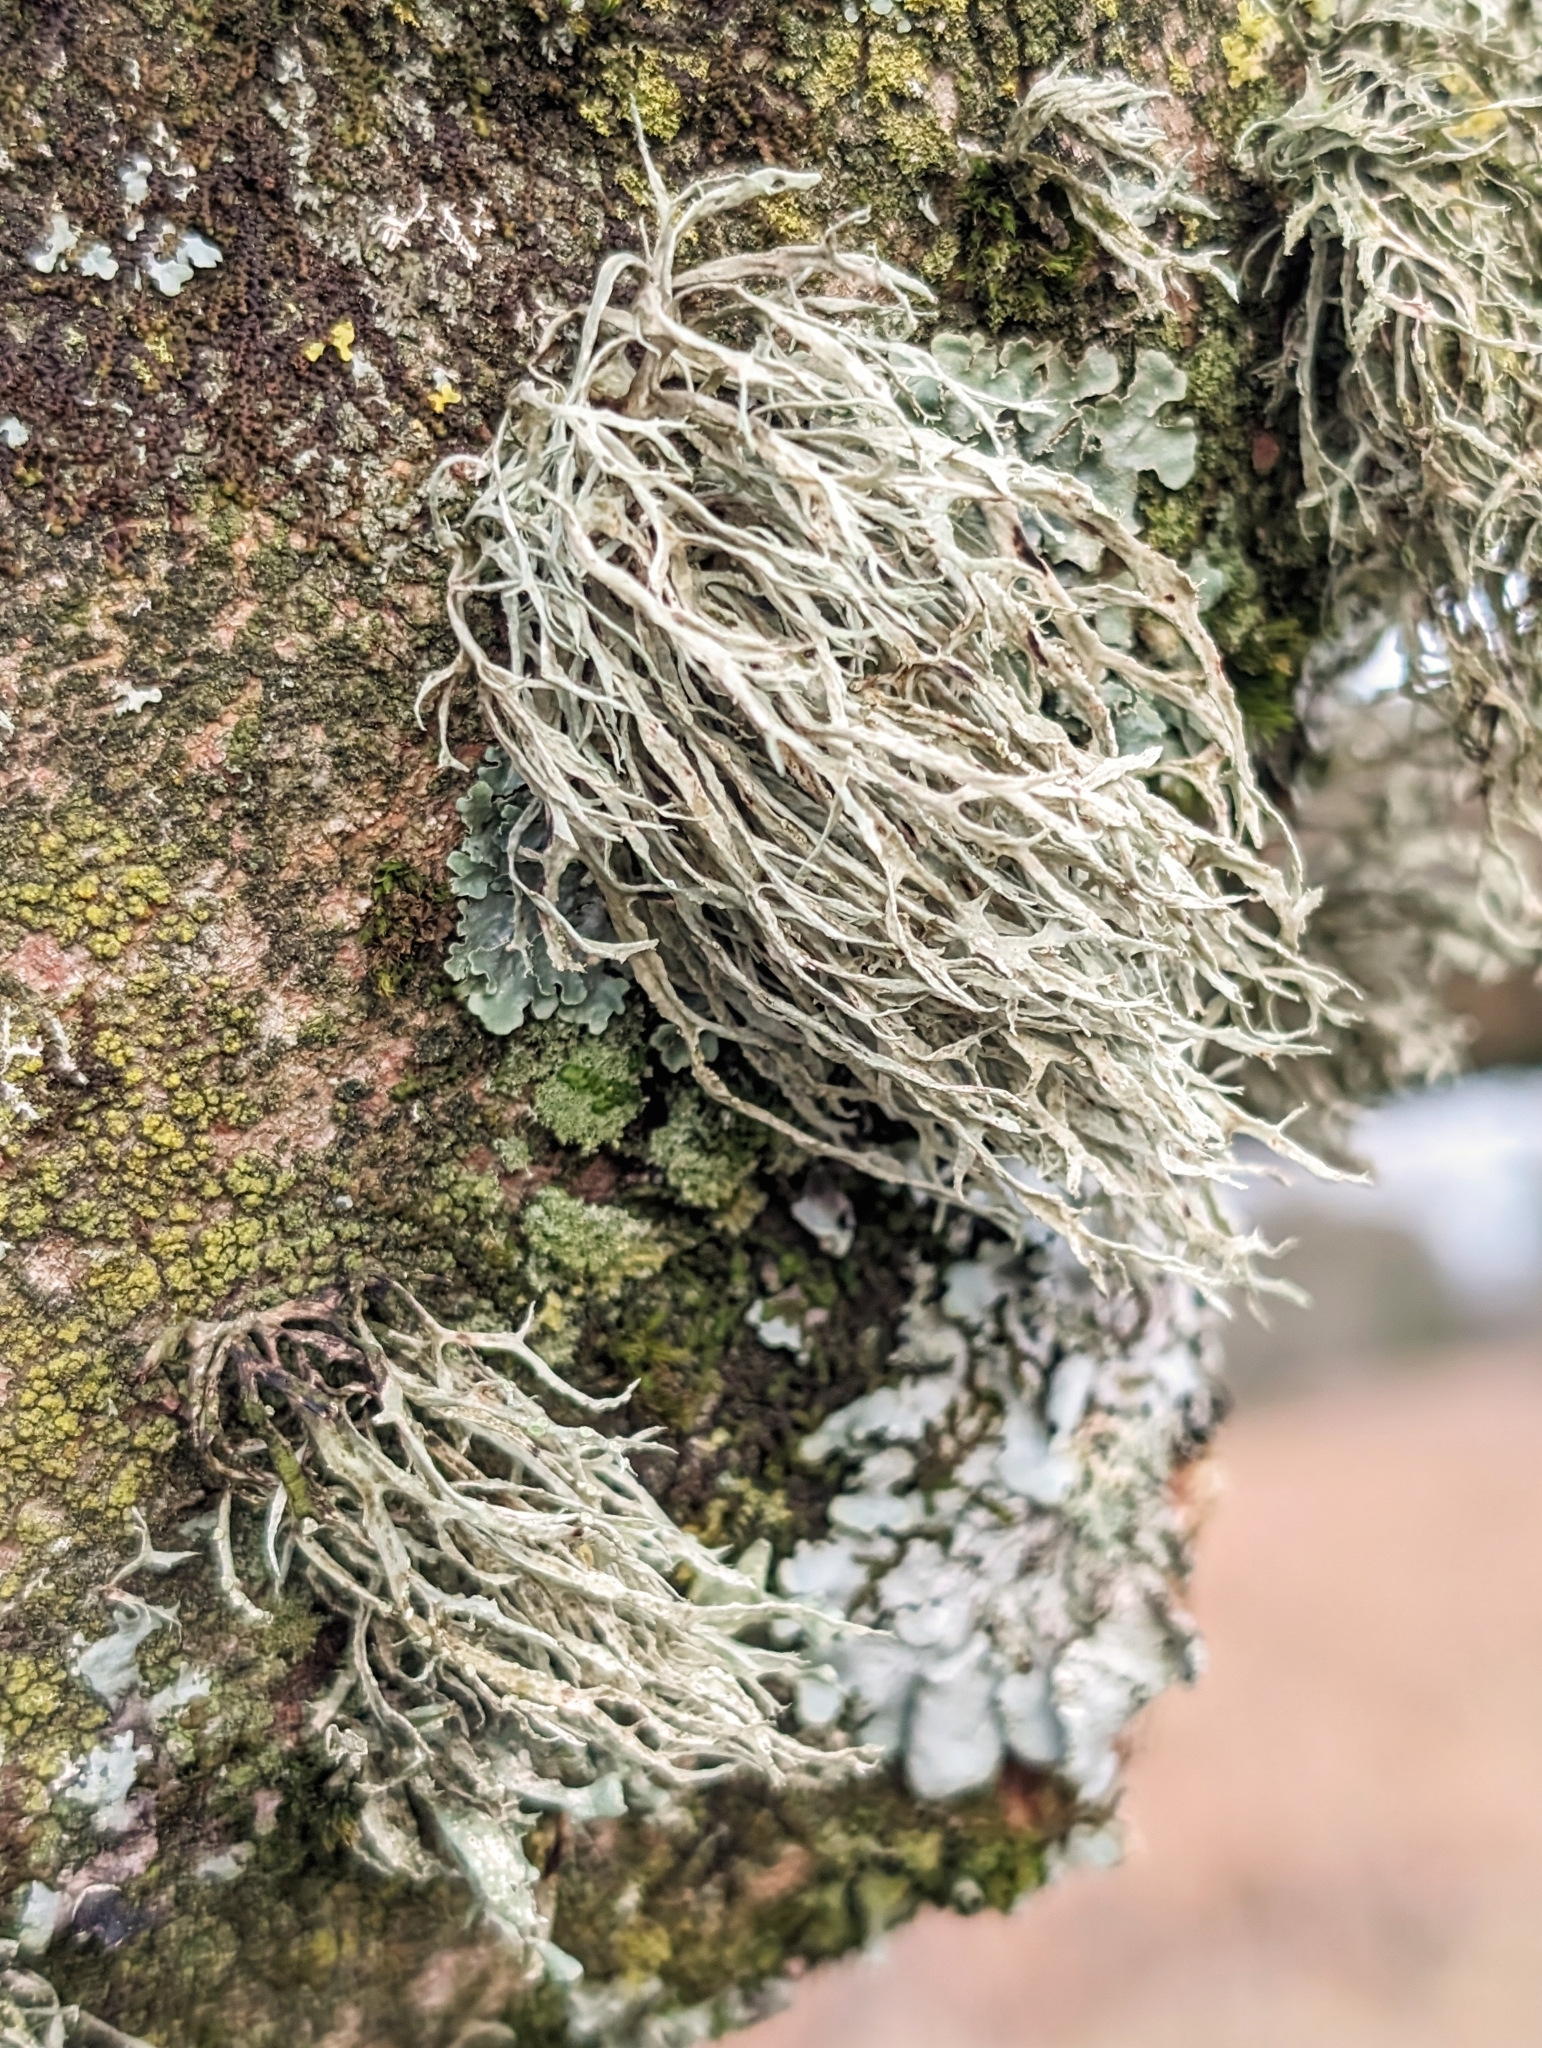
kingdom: Fungi
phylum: Ascomycota
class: Lecanoromycetes
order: Lecanorales
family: Ramalinaceae
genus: Ramalina
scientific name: Ramalina farinacea
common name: Farinose cartilage lichen
